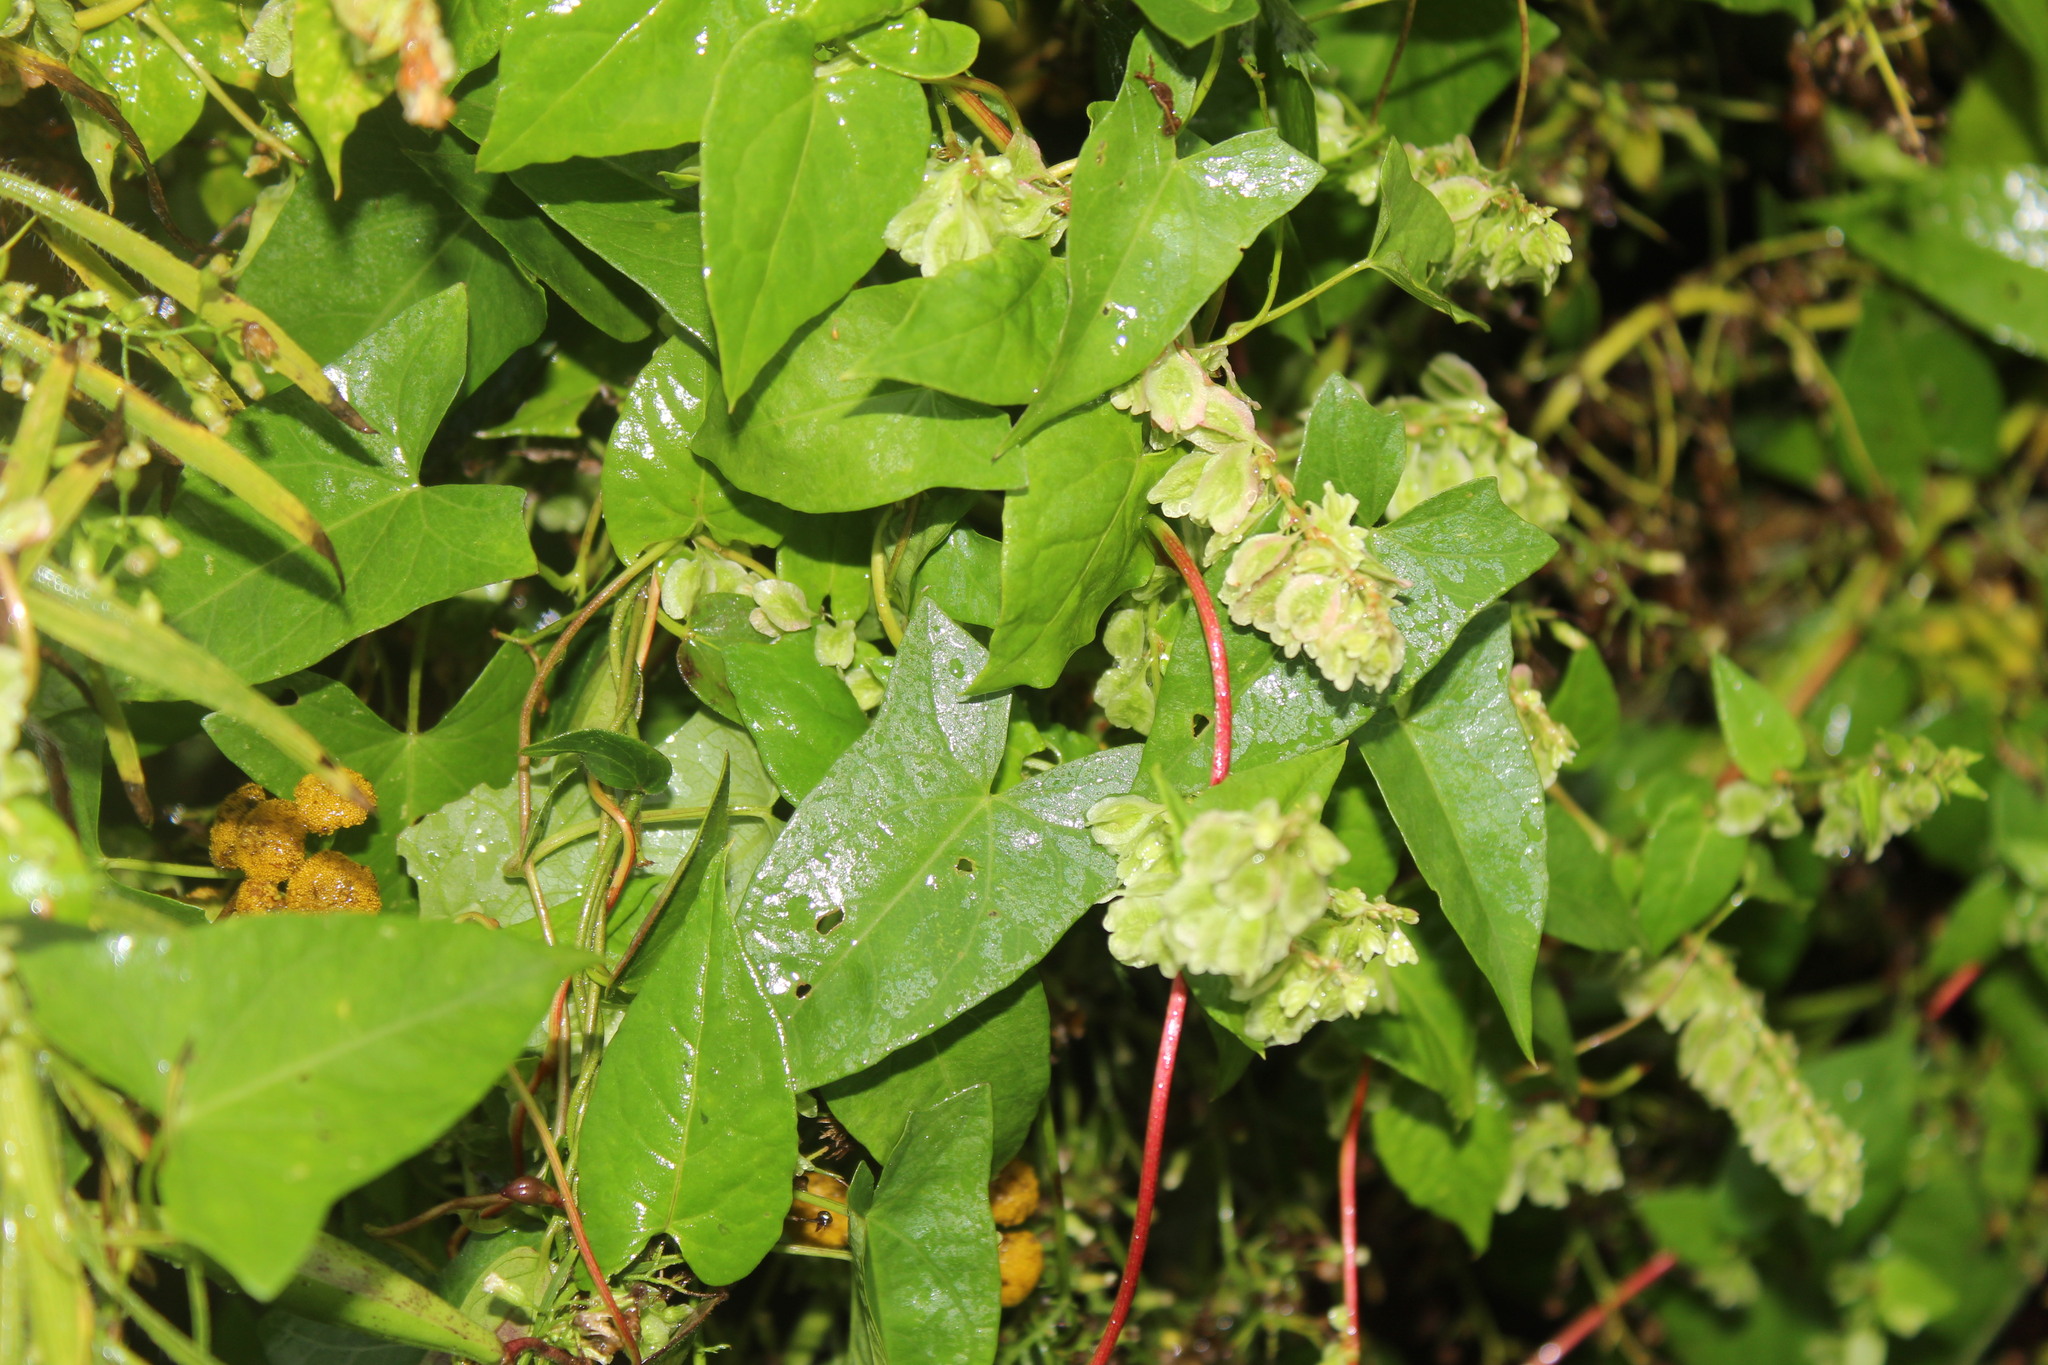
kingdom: Plantae
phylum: Tracheophyta
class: Magnoliopsida
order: Caryophyllales
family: Polygonaceae
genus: Fallopia
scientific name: Fallopia scandens
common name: Climbing false buckwheat
